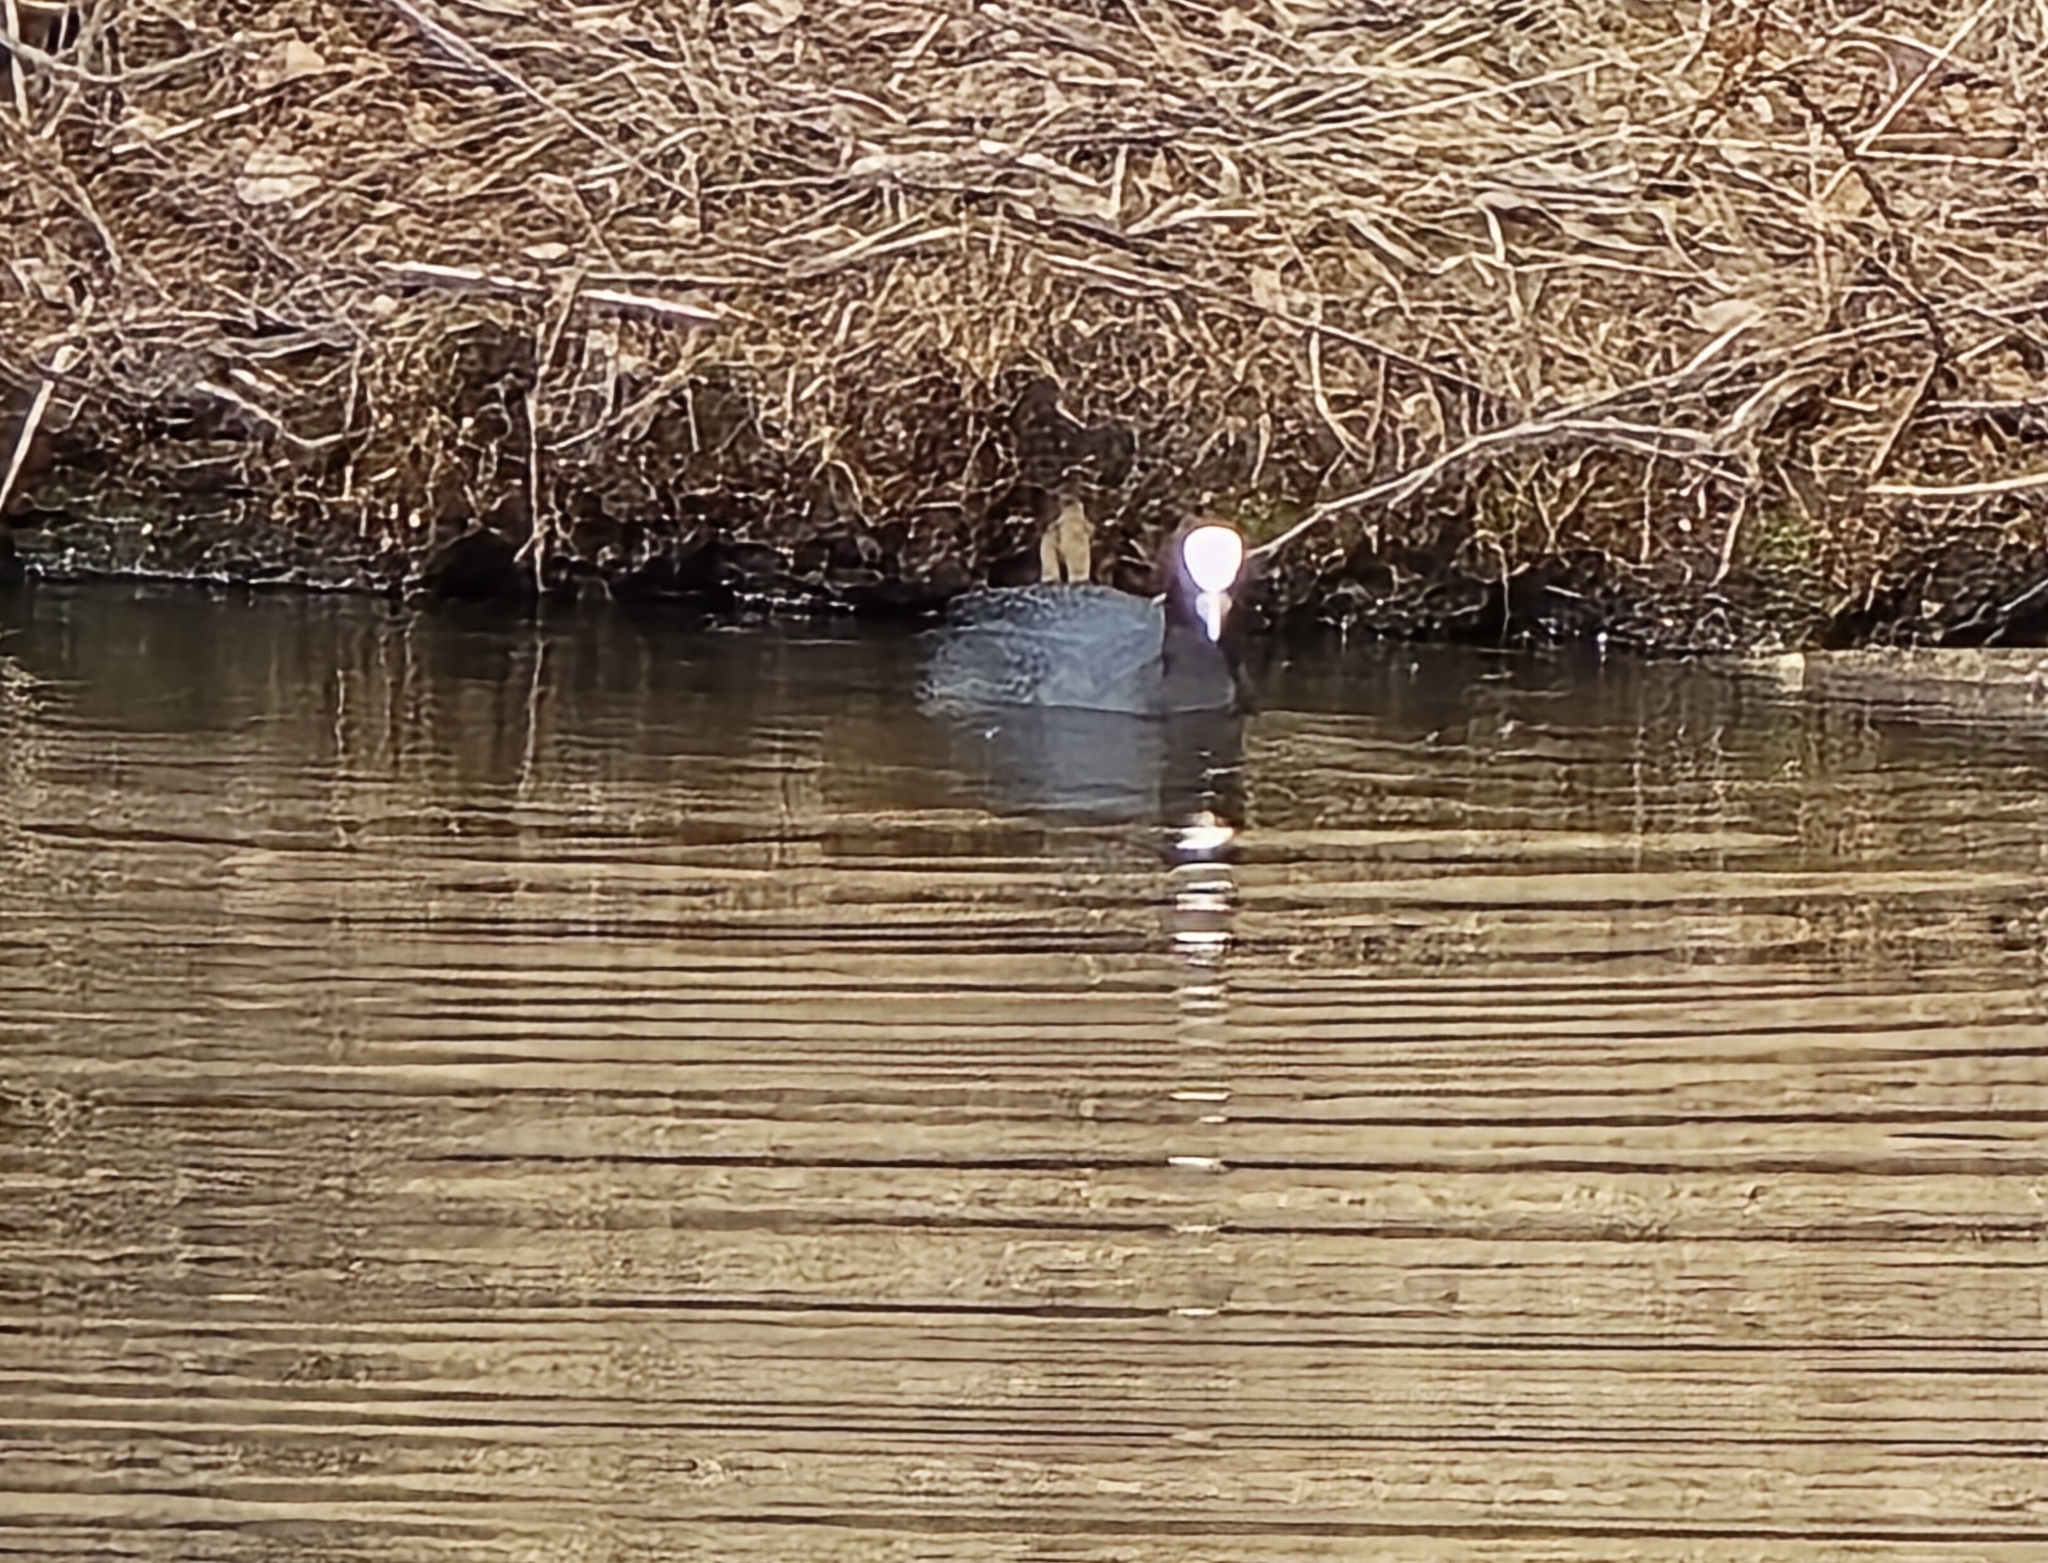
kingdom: Animalia
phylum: Chordata
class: Aves
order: Gruiformes
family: Rallidae
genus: Fulica
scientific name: Fulica atra
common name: Eurasian coot
